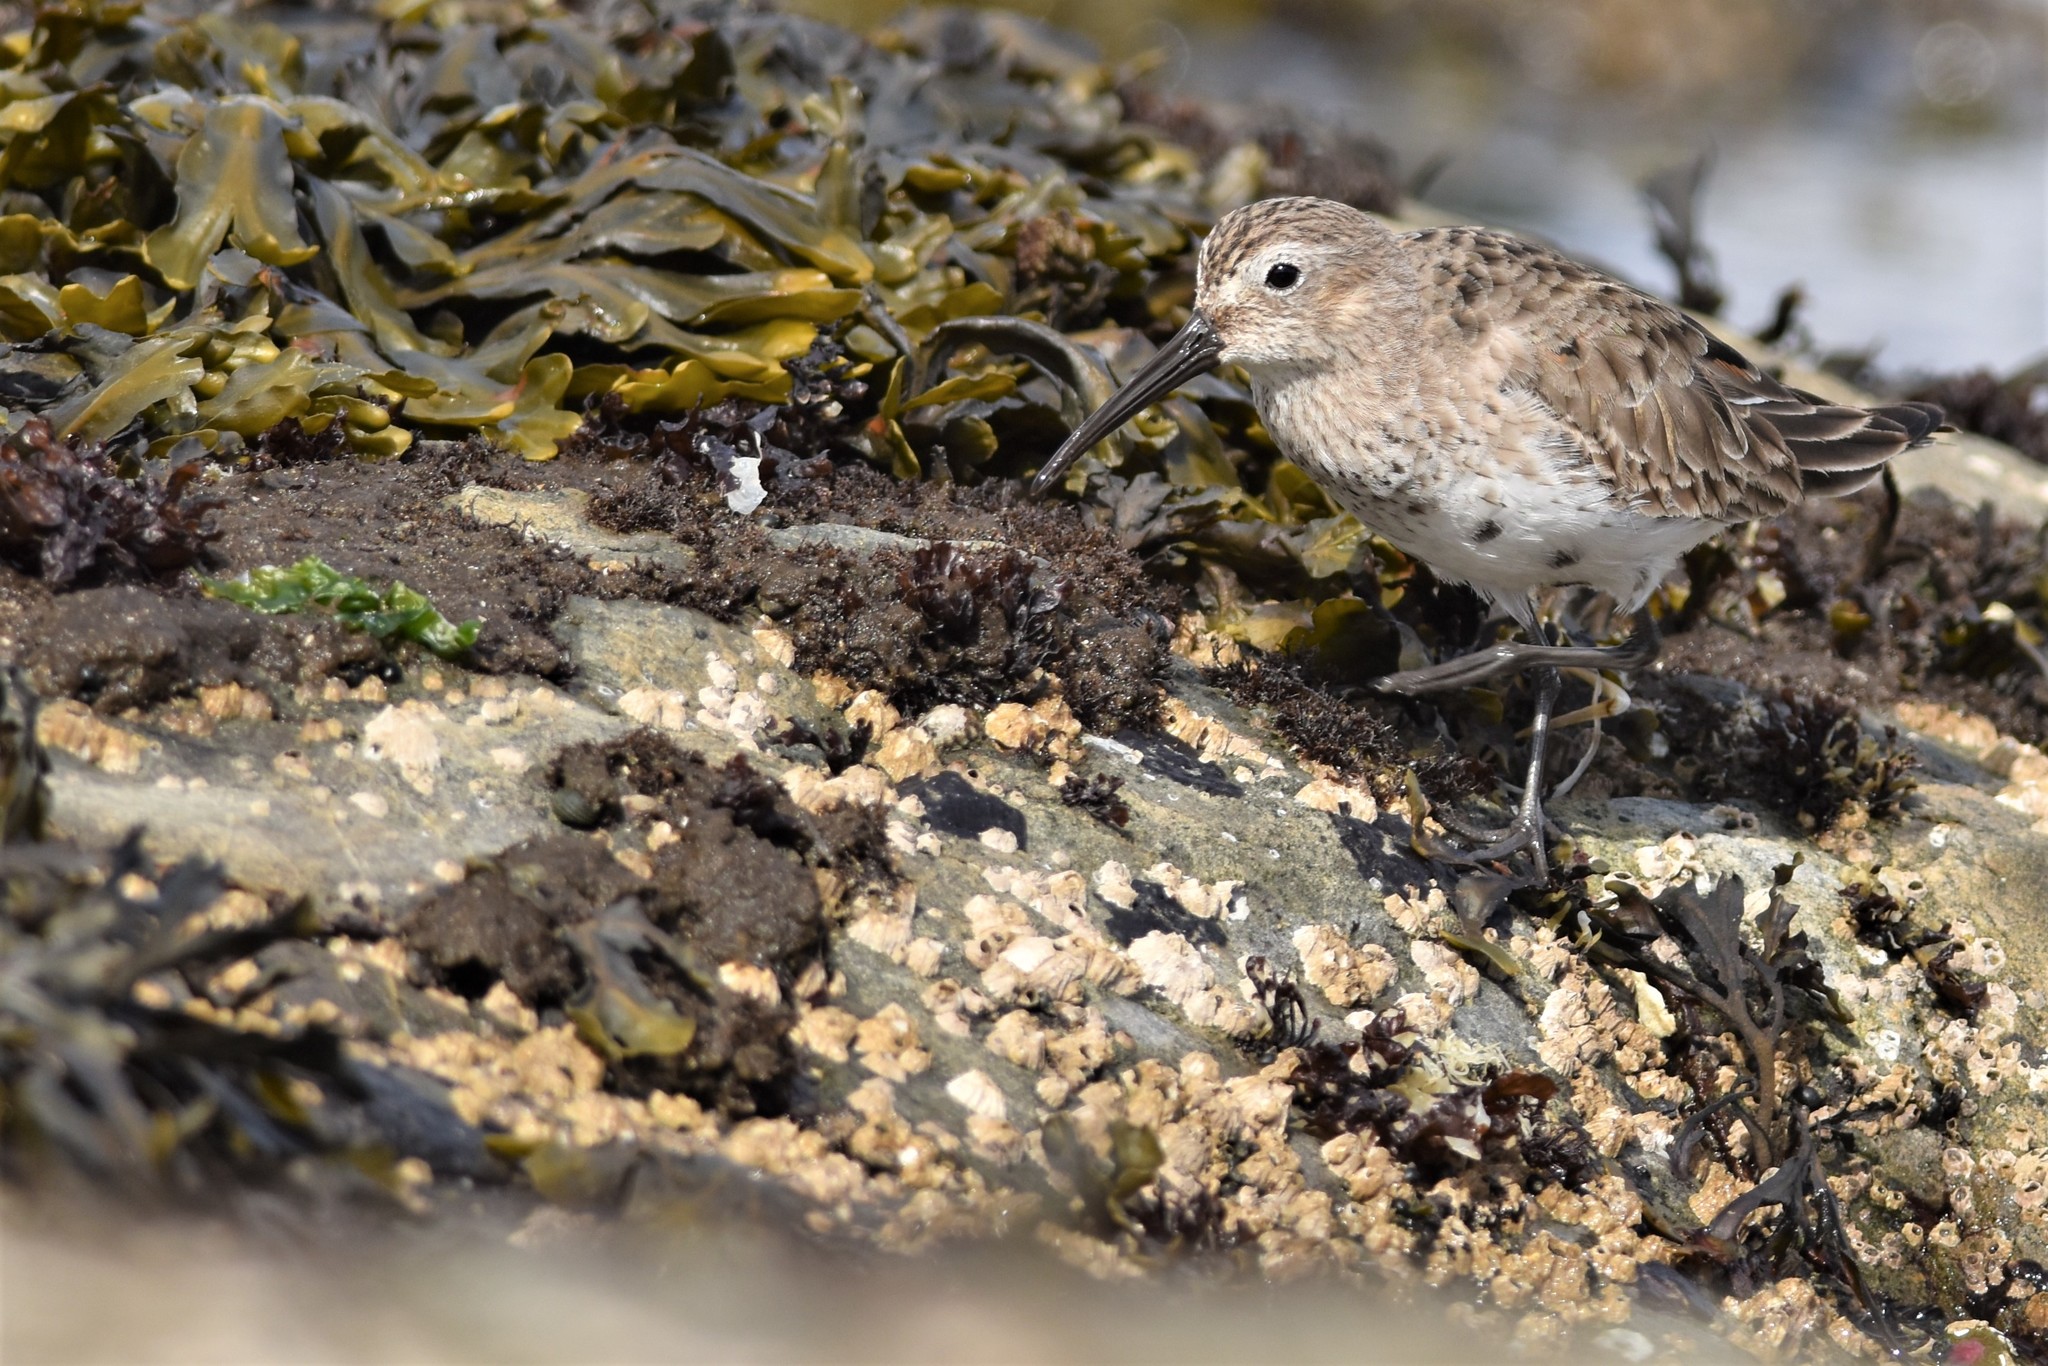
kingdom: Animalia
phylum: Chordata
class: Aves
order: Charadriiformes
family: Scolopacidae
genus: Calidris
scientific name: Calidris alpina
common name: Dunlin
